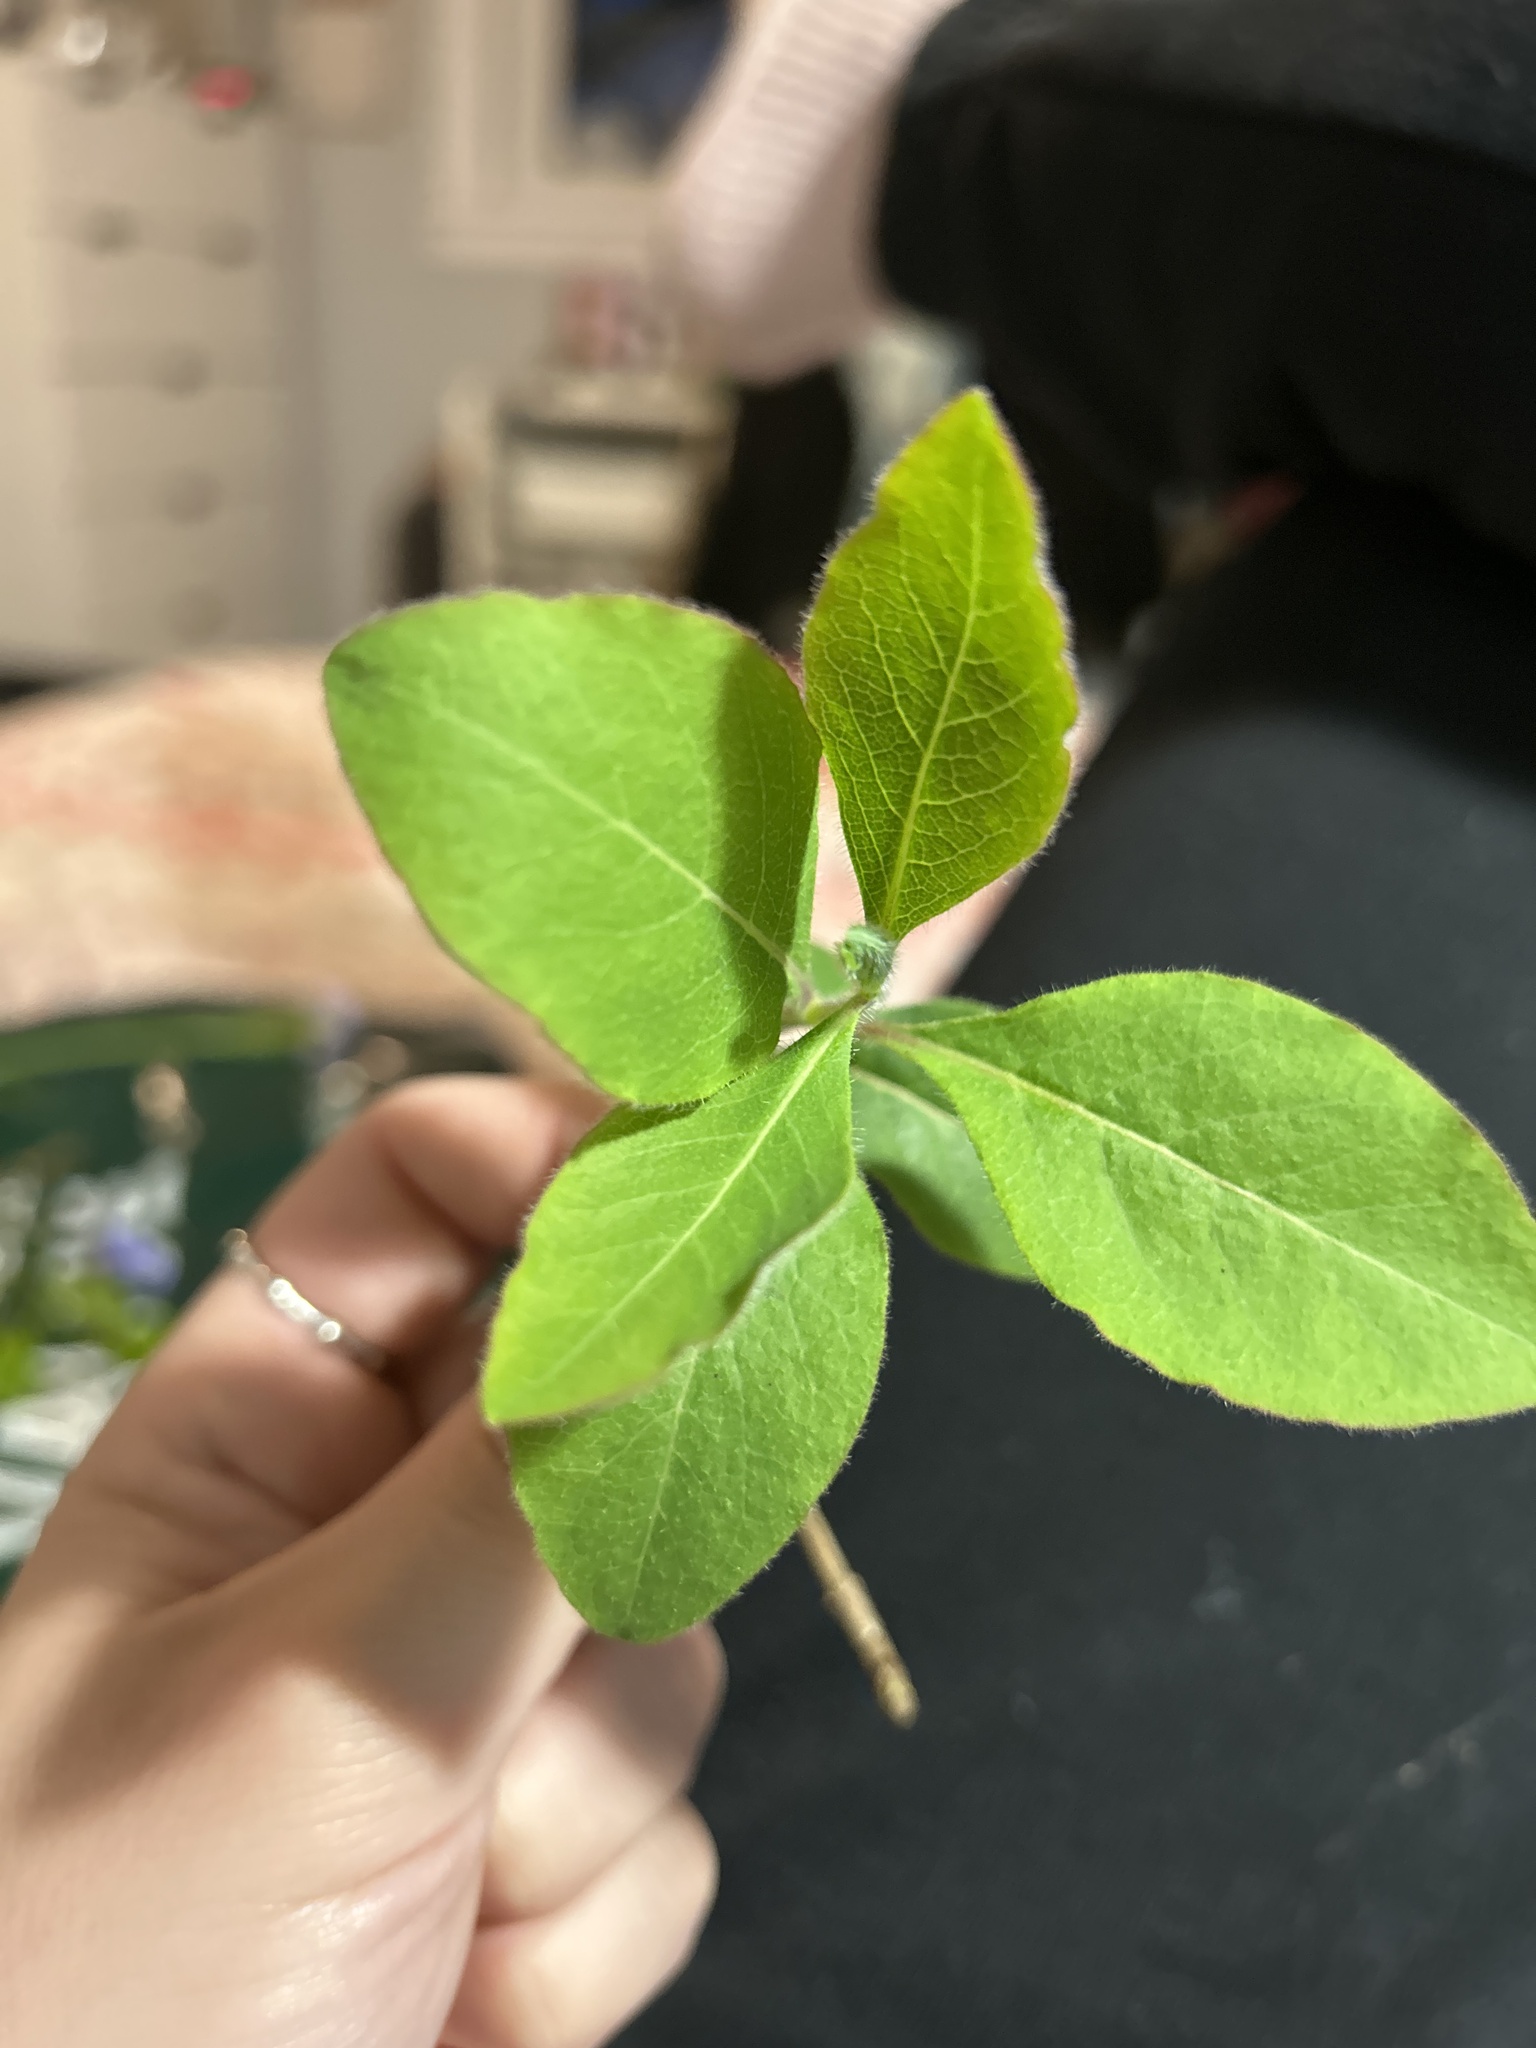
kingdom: Plantae
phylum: Tracheophyta
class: Magnoliopsida
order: Dipsacales
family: Caprifoliaceae
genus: Lonicera
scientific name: Lonicera periclymenum
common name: European honeysuckle
